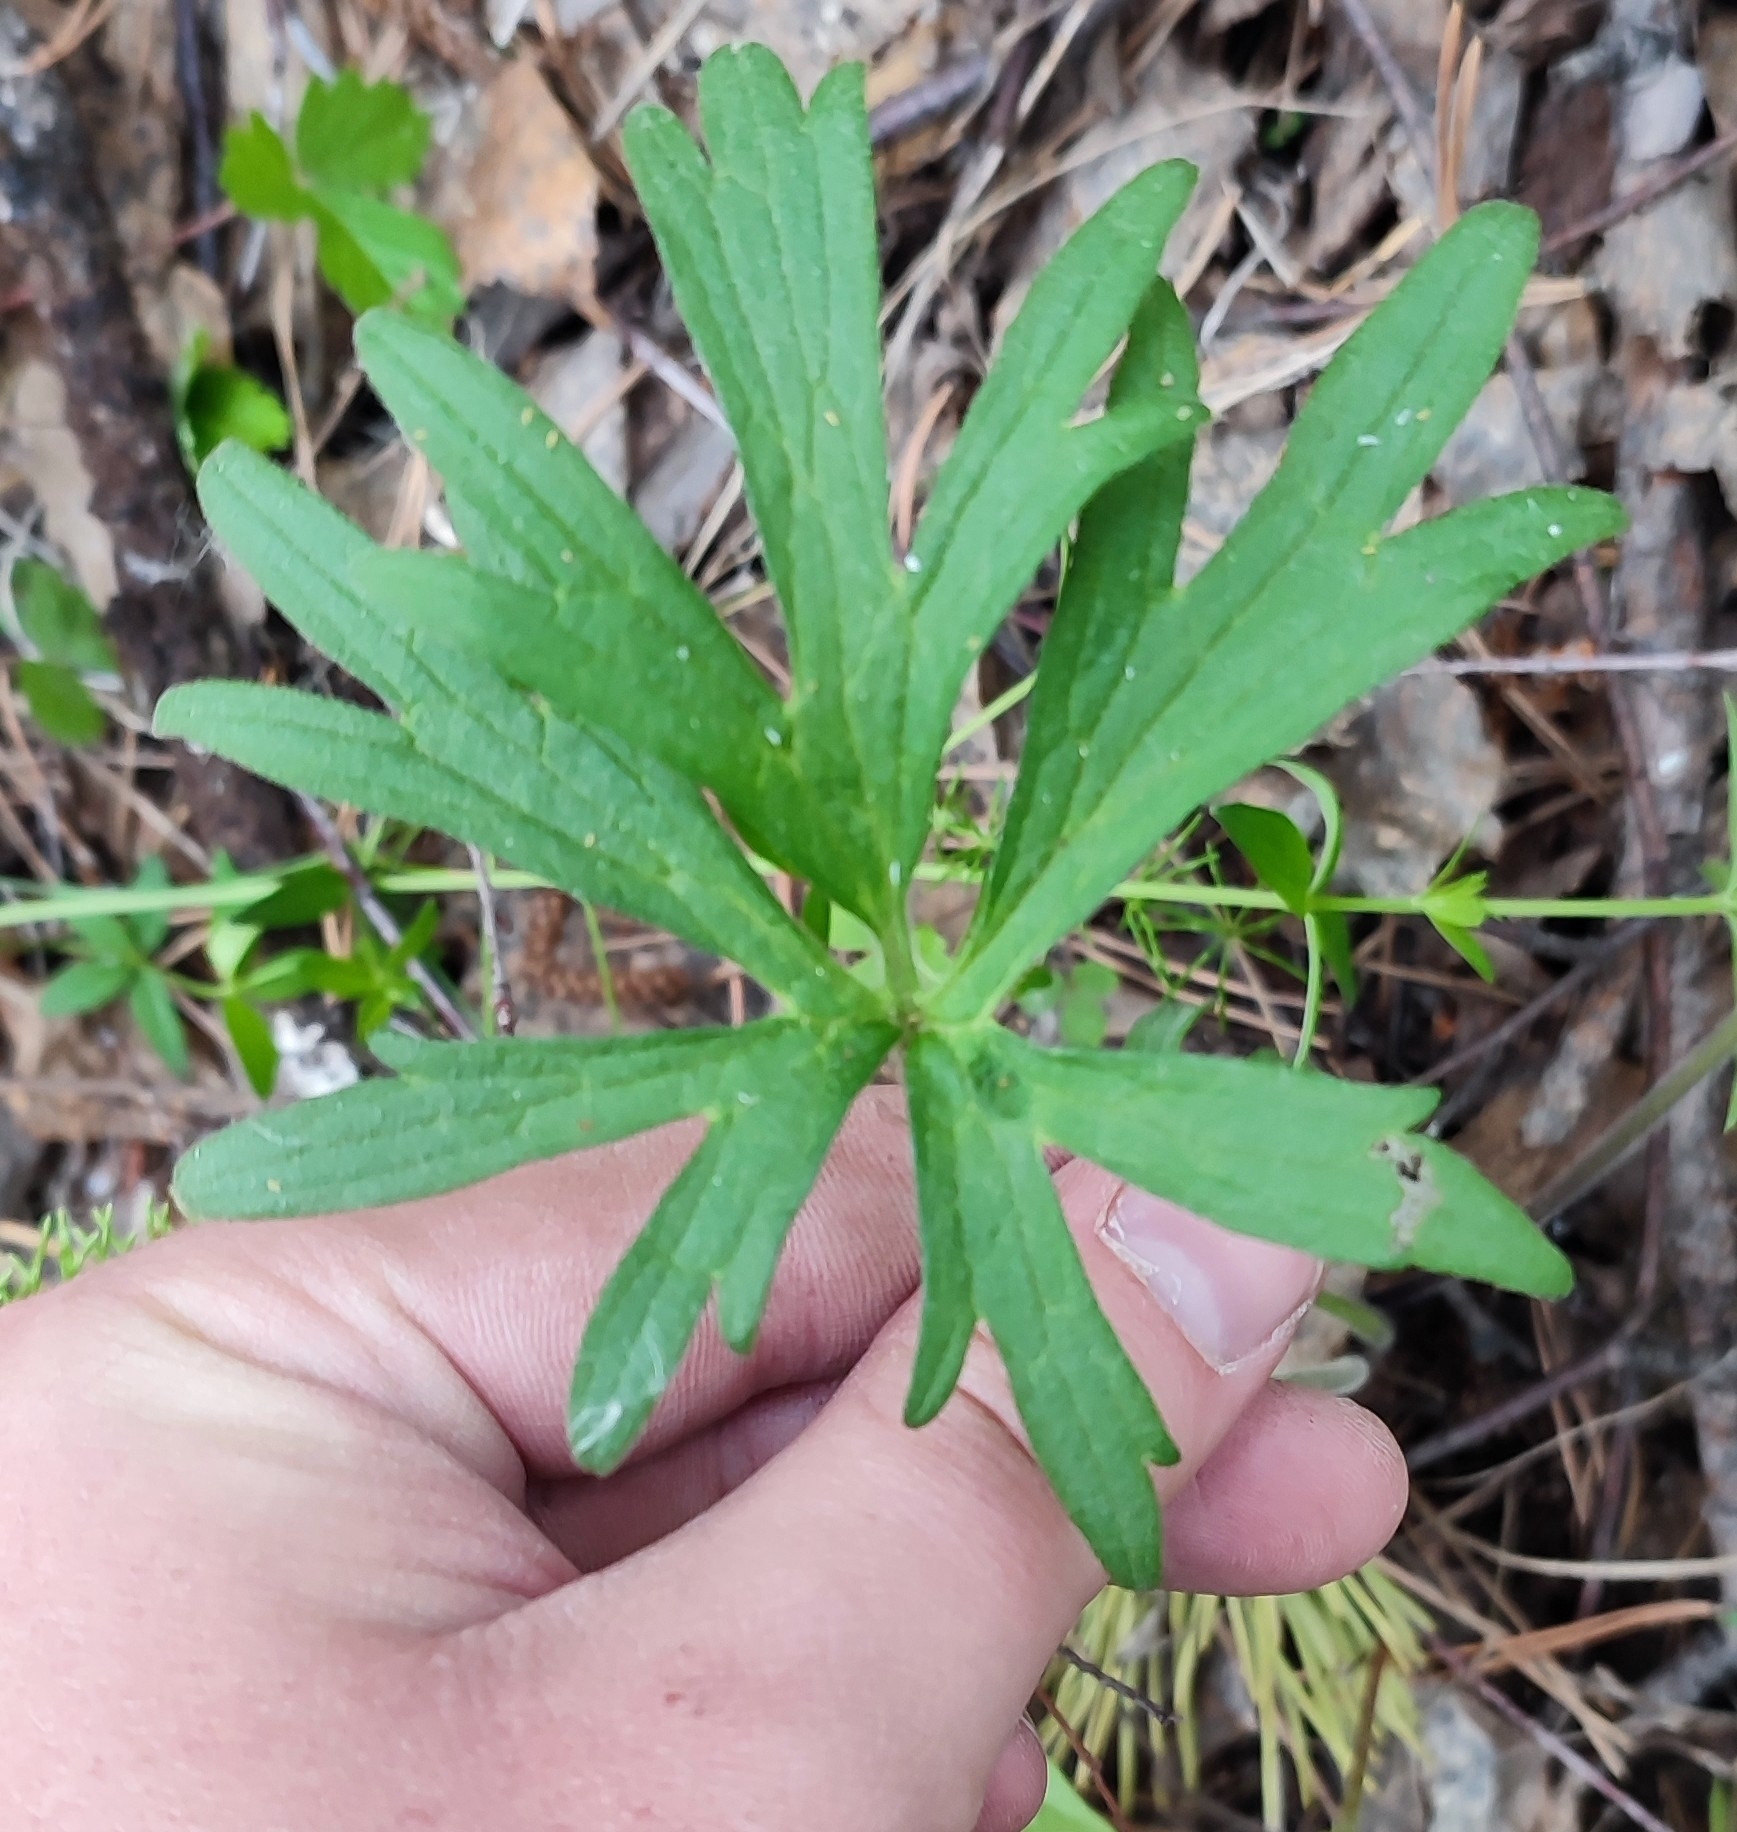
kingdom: Plantae
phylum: Tracheophyta
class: Magnoliopsida
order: Ranunculales
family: Ranunculaceae
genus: Ranunculus
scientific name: Ranunculus polyanthemos
